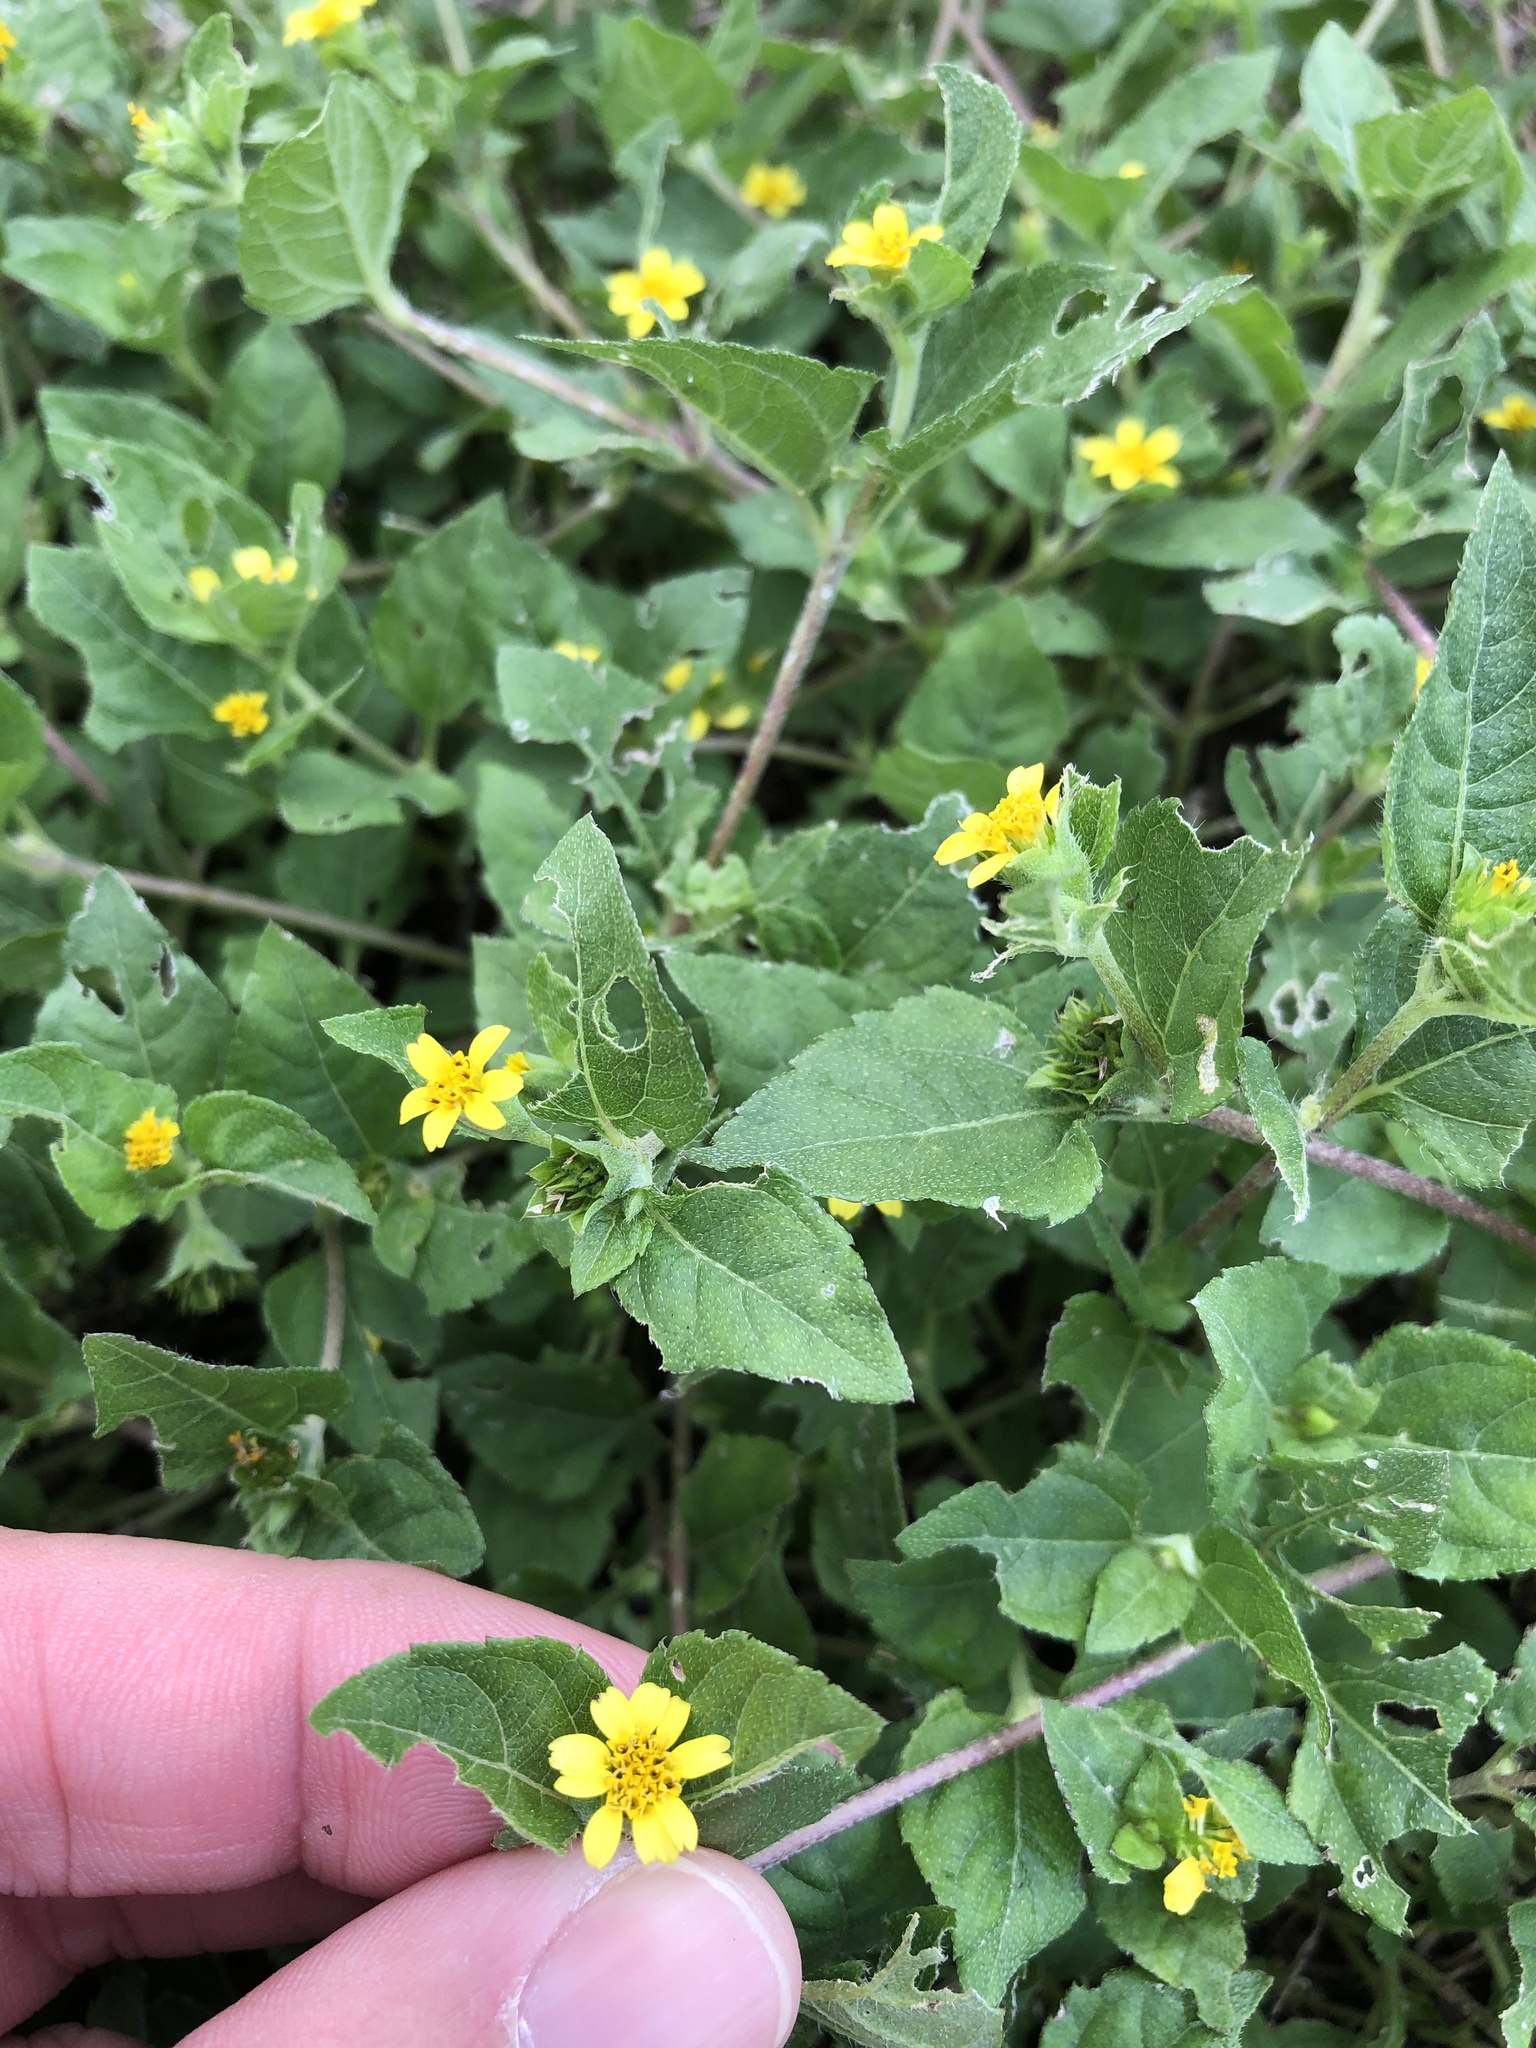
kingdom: Plantae
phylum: Tracheophyta
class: Magnoliopsida
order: Asterales
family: Asteraceae
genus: Calyptocarpus
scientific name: Calyptocarpus vialis
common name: Straggler daisy
